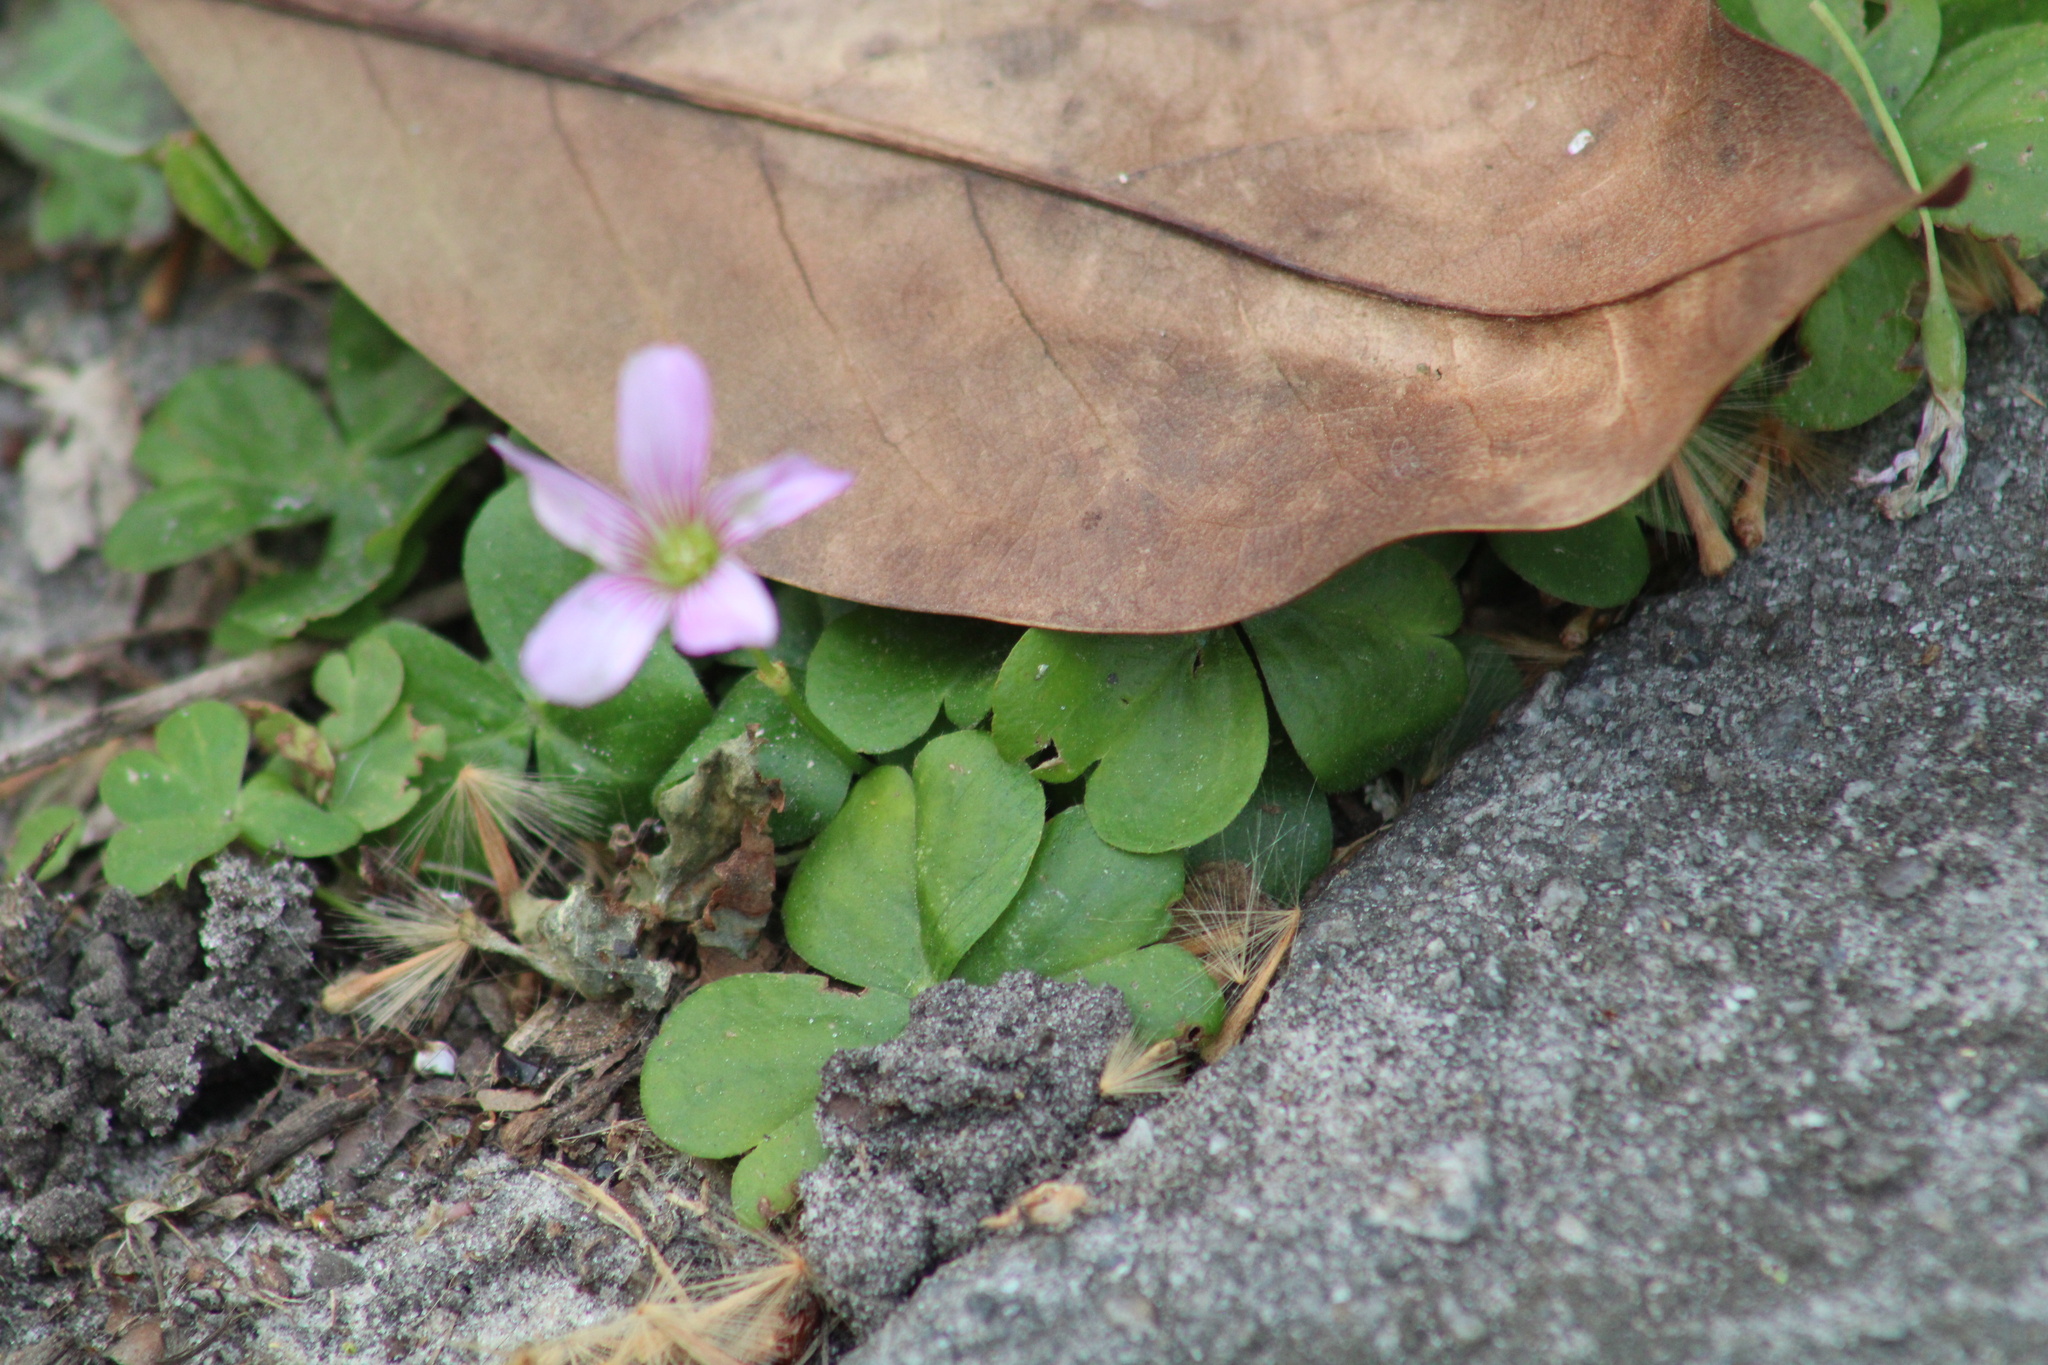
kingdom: Plantae
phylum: Tracheophyta
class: Magnoliopsida
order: Oxalidales
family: Oxalidaceae
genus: Oxalis
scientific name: Oxalis debilis
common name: Large-flowered pink-sorrel
